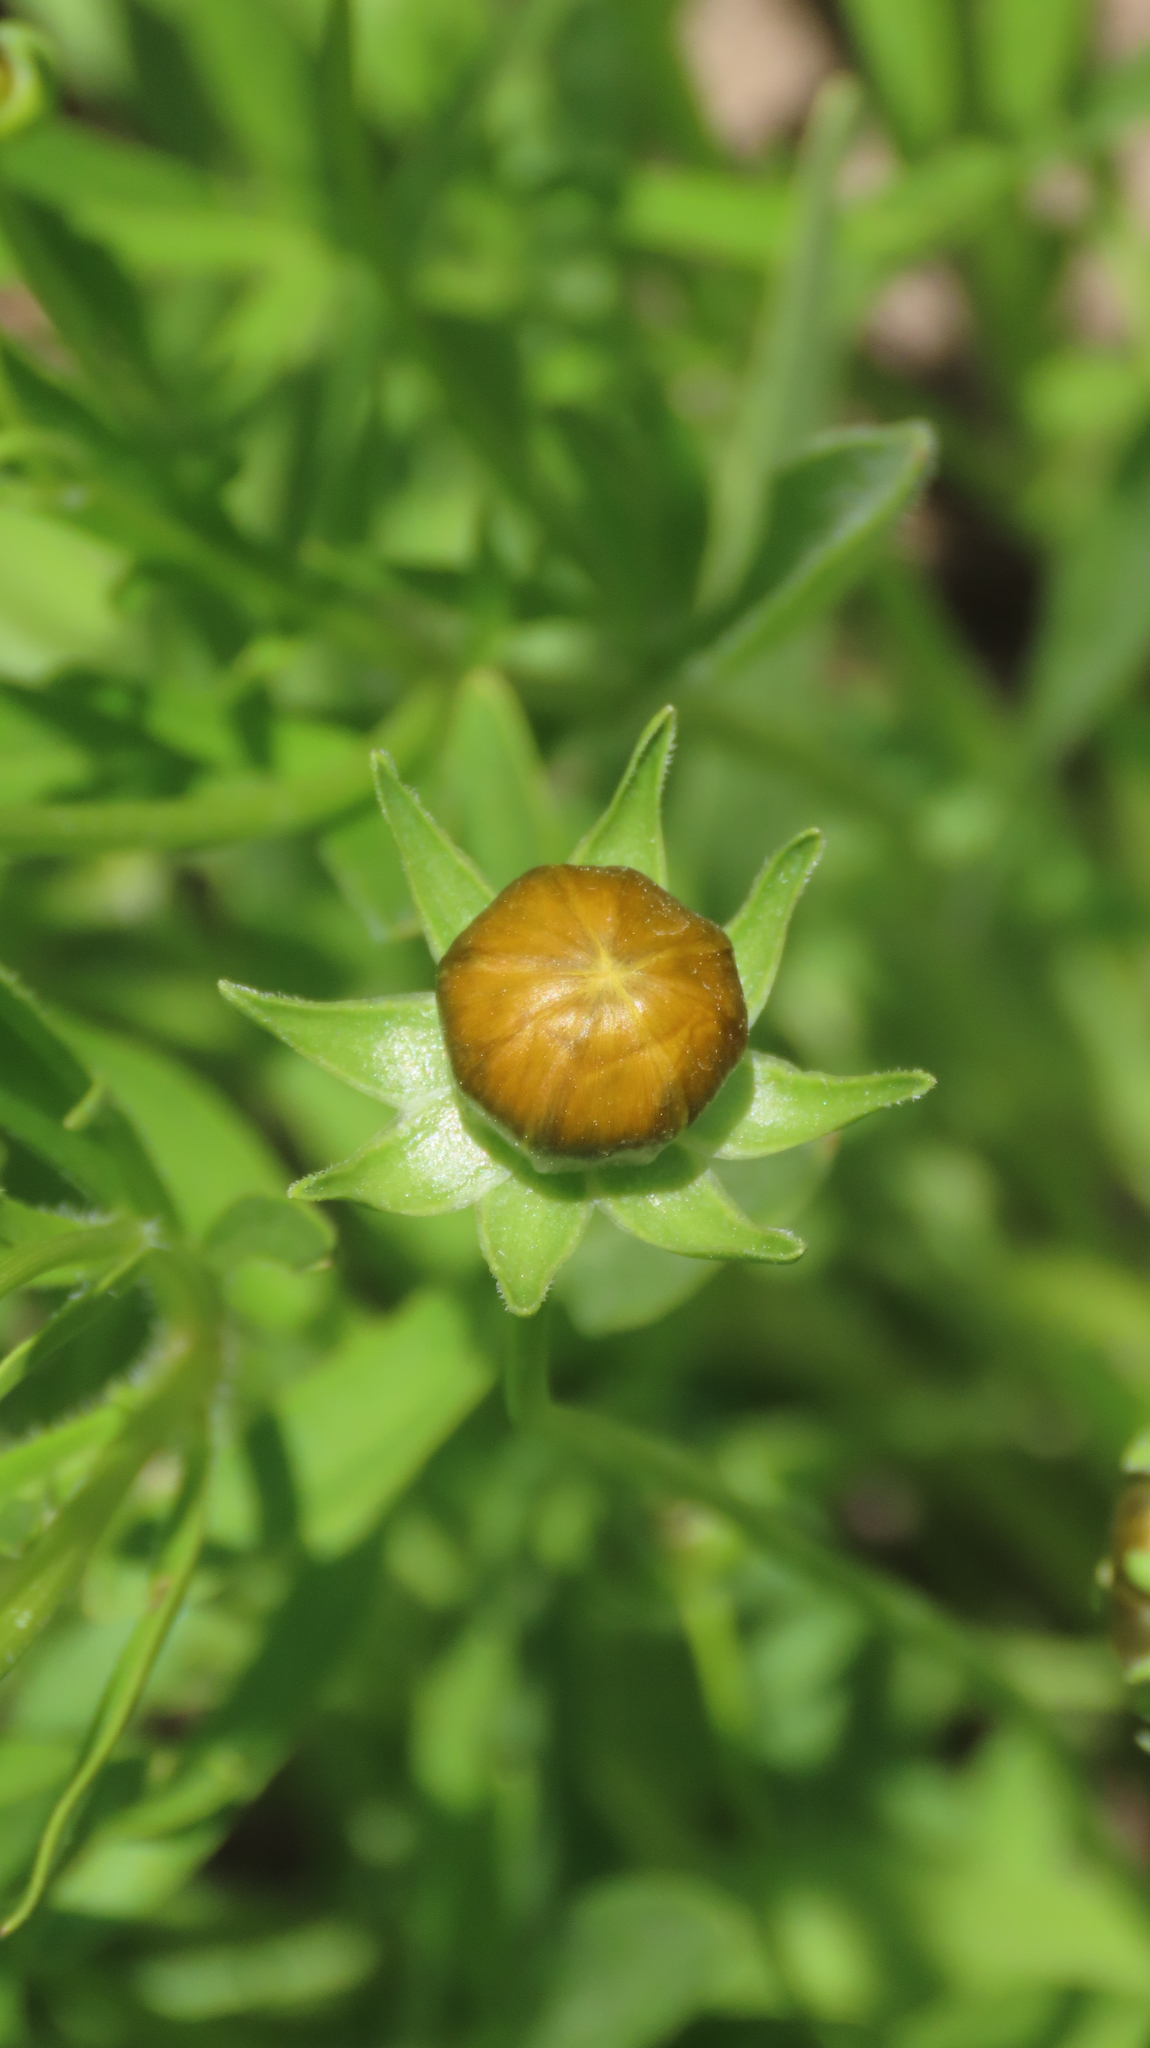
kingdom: Plantae
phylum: Tracheophyta
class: Magnoliopsida
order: Asterales
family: Asteraceae
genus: Coreopsis
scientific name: Coreopsis lanceolata
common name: Garden coreopsis
